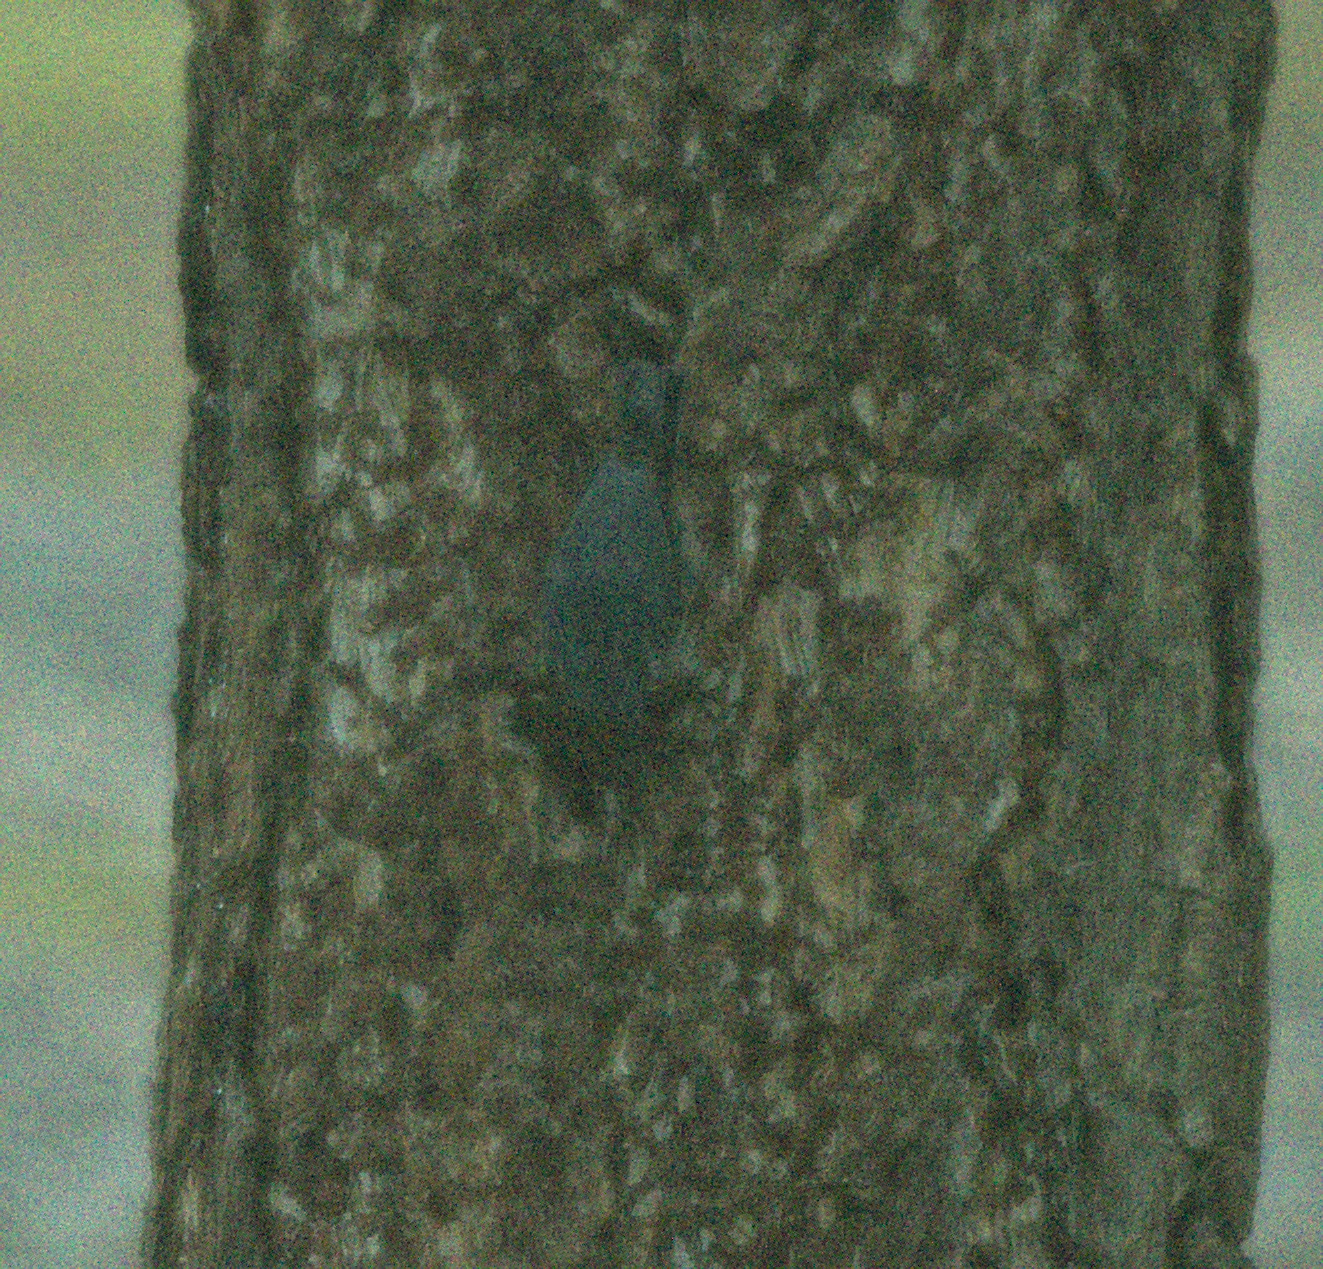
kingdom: Animalia
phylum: Chordata
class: Aves
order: Passeriformes
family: Sittidae
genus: Sitta
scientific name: Sitta europaea
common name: Eurasian nuthatch
